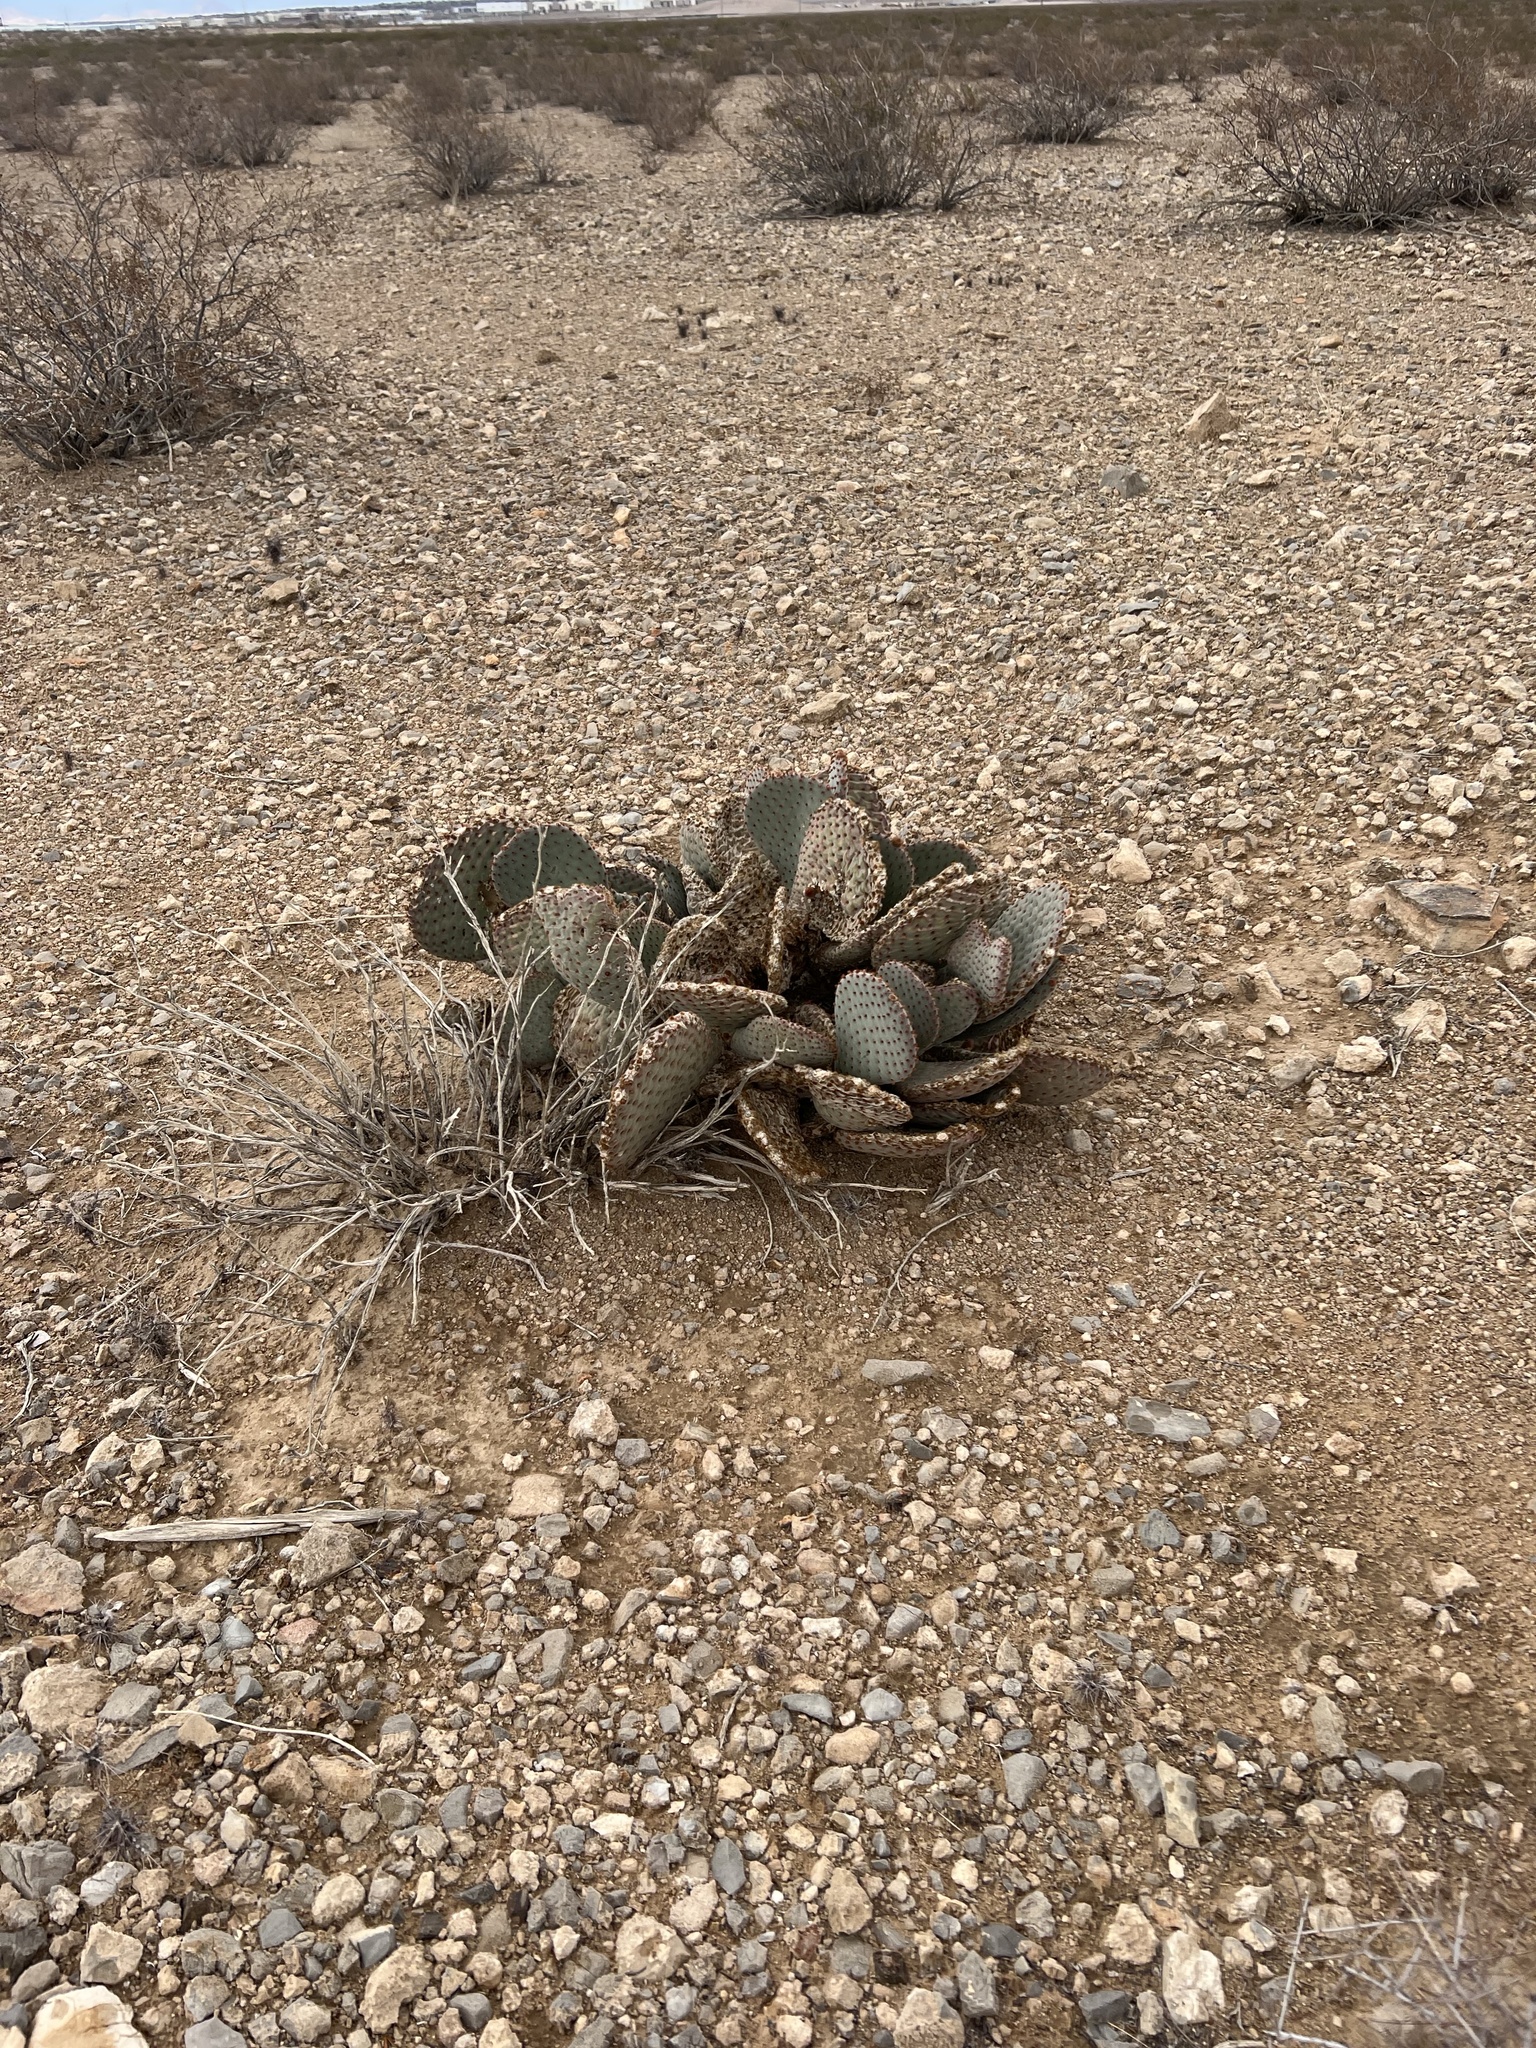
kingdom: Plantae
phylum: Tracheophyta
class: Magnoliopsida
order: Caryophyllales
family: Cactaceae
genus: Opuntia
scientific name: Opuntia basilaris
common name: Beavertail prickly-pear
